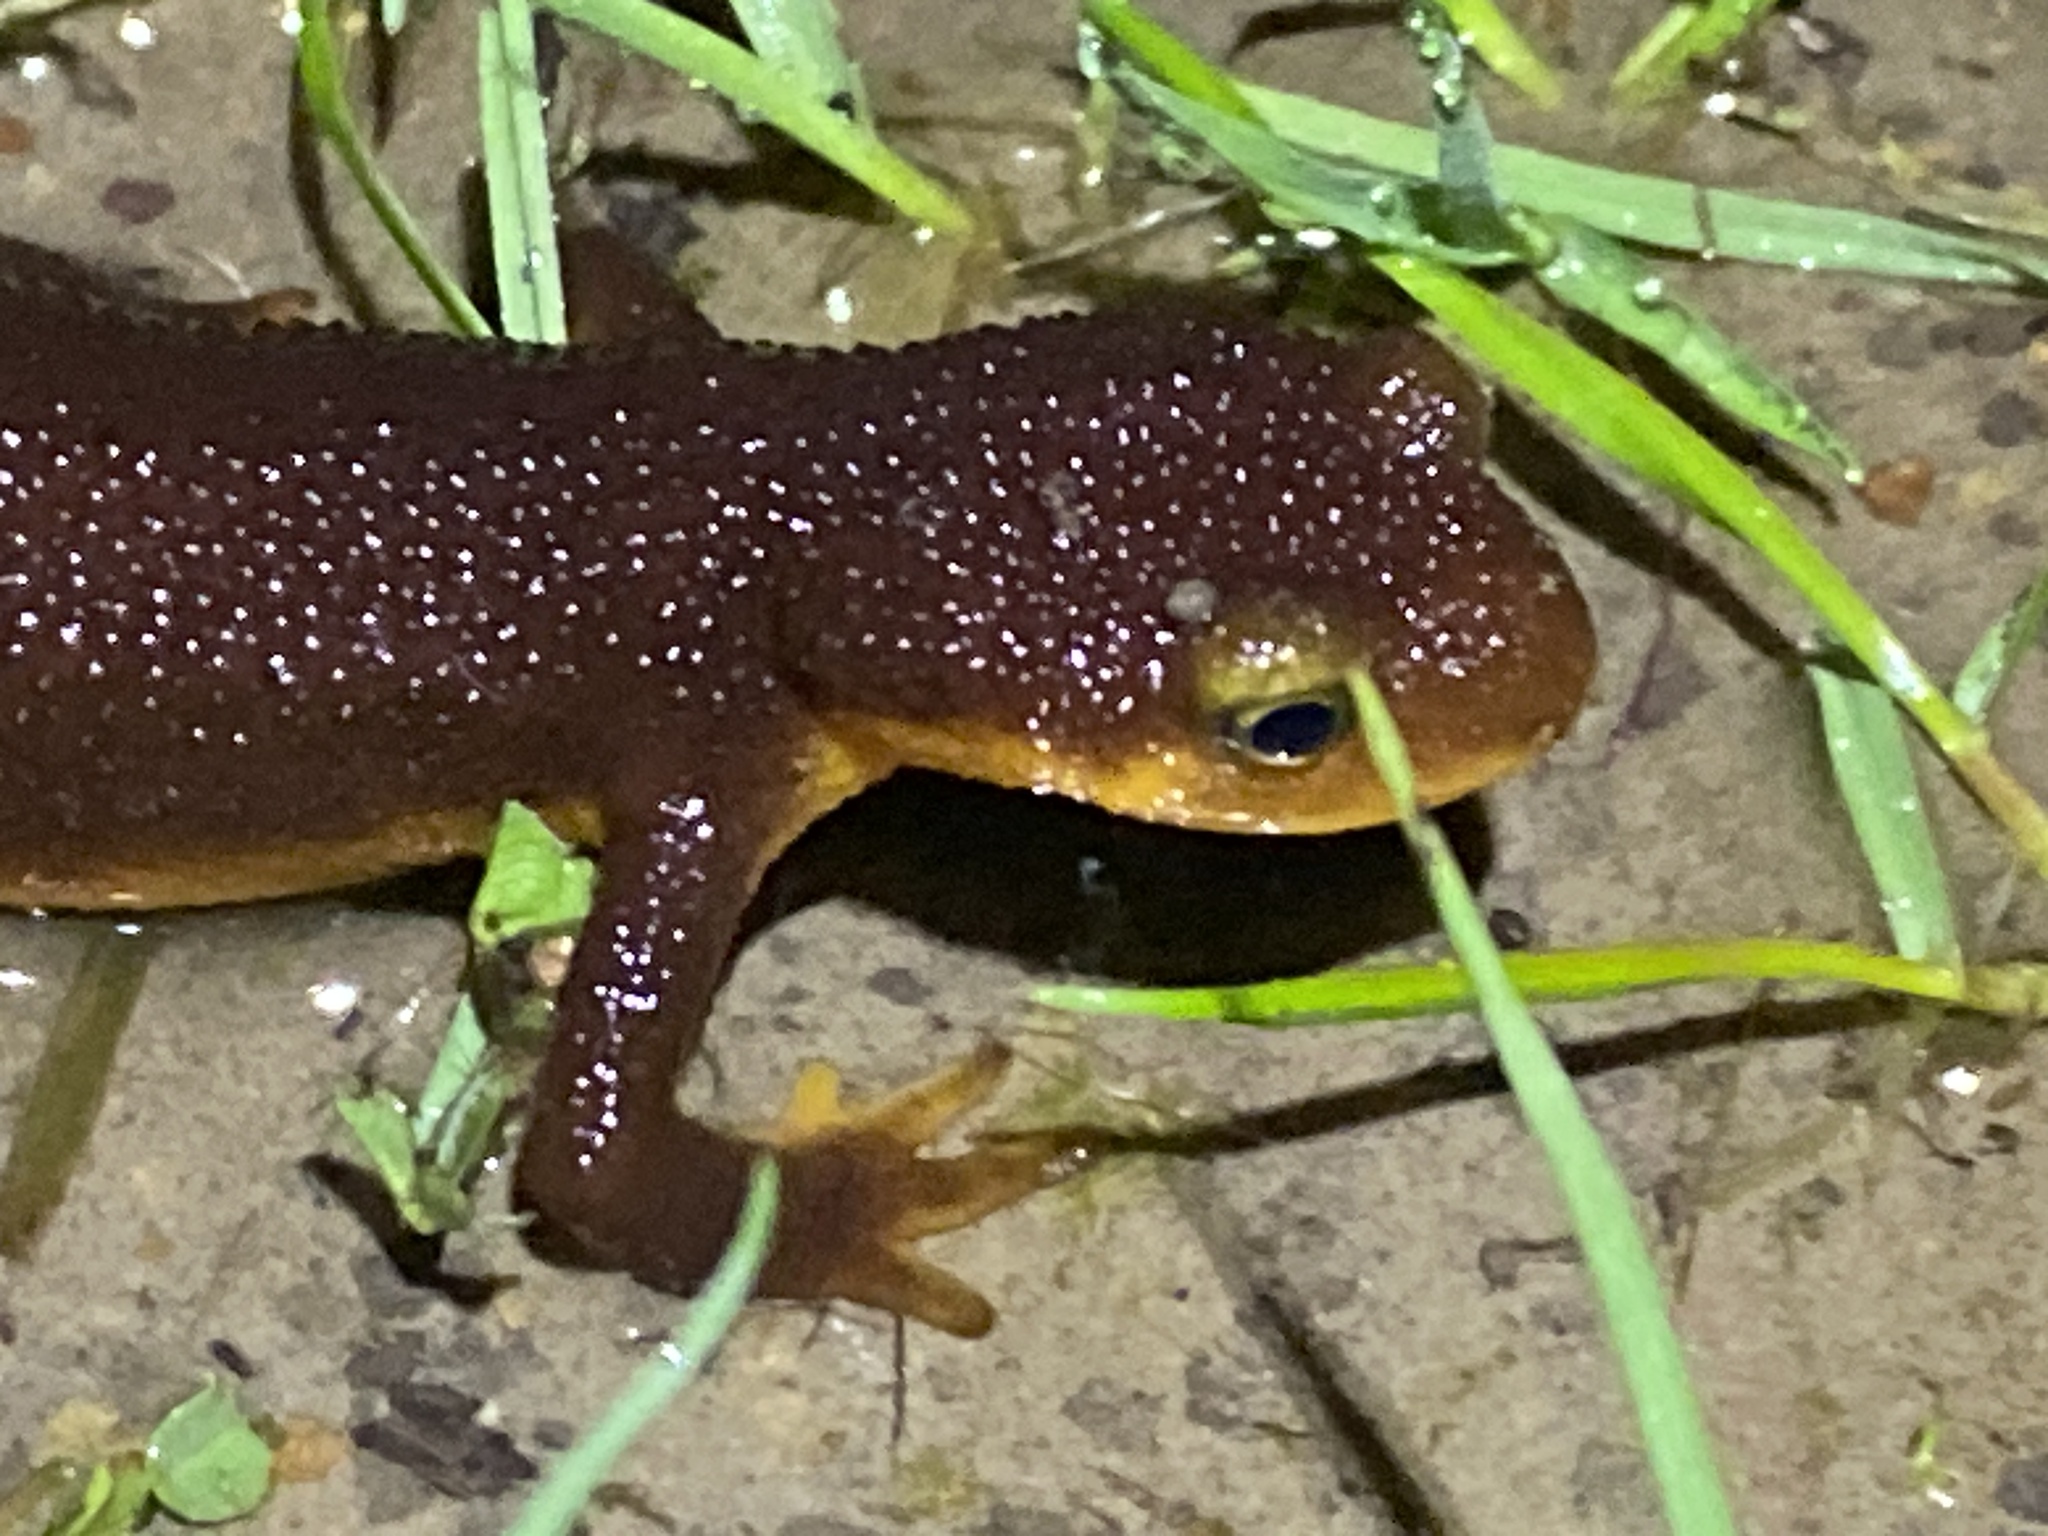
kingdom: Animalia
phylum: Chordata
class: Amphibia
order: Caudata
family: Salamandridae
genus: Taricha
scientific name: Taricha torosa
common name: California newt
